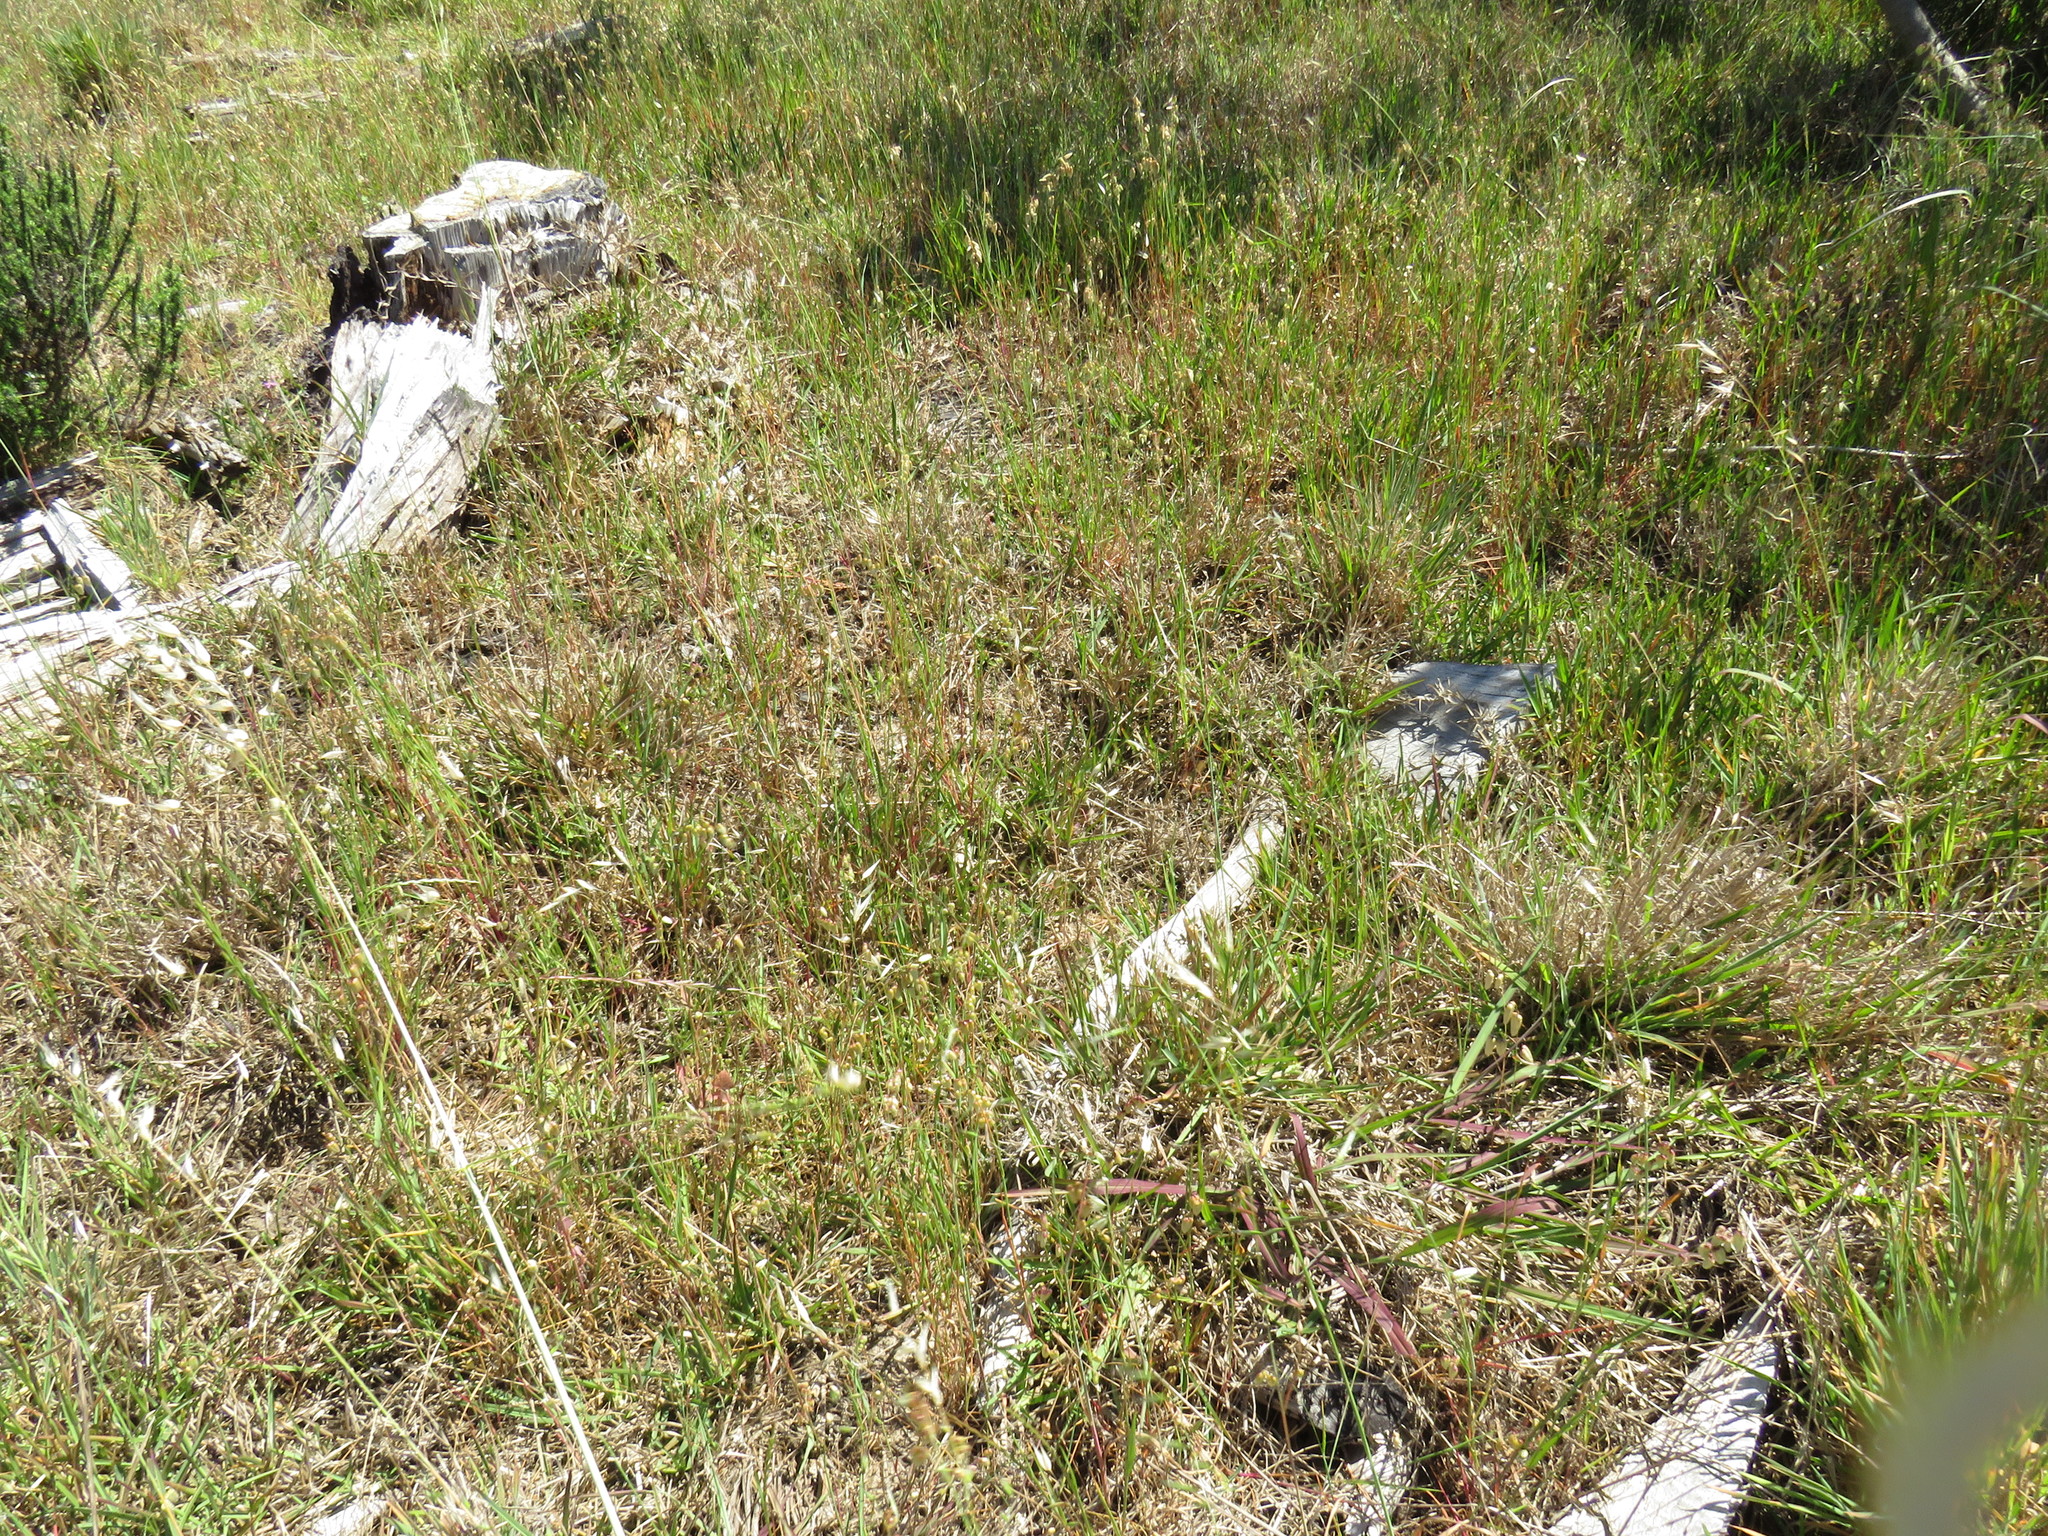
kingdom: Plantae
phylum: Tracheophyta
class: Liliopsida
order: Poales
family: Poaceae
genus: Stenotaphrum
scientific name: Stenotaphrum secundatum
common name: St. augustine grass
